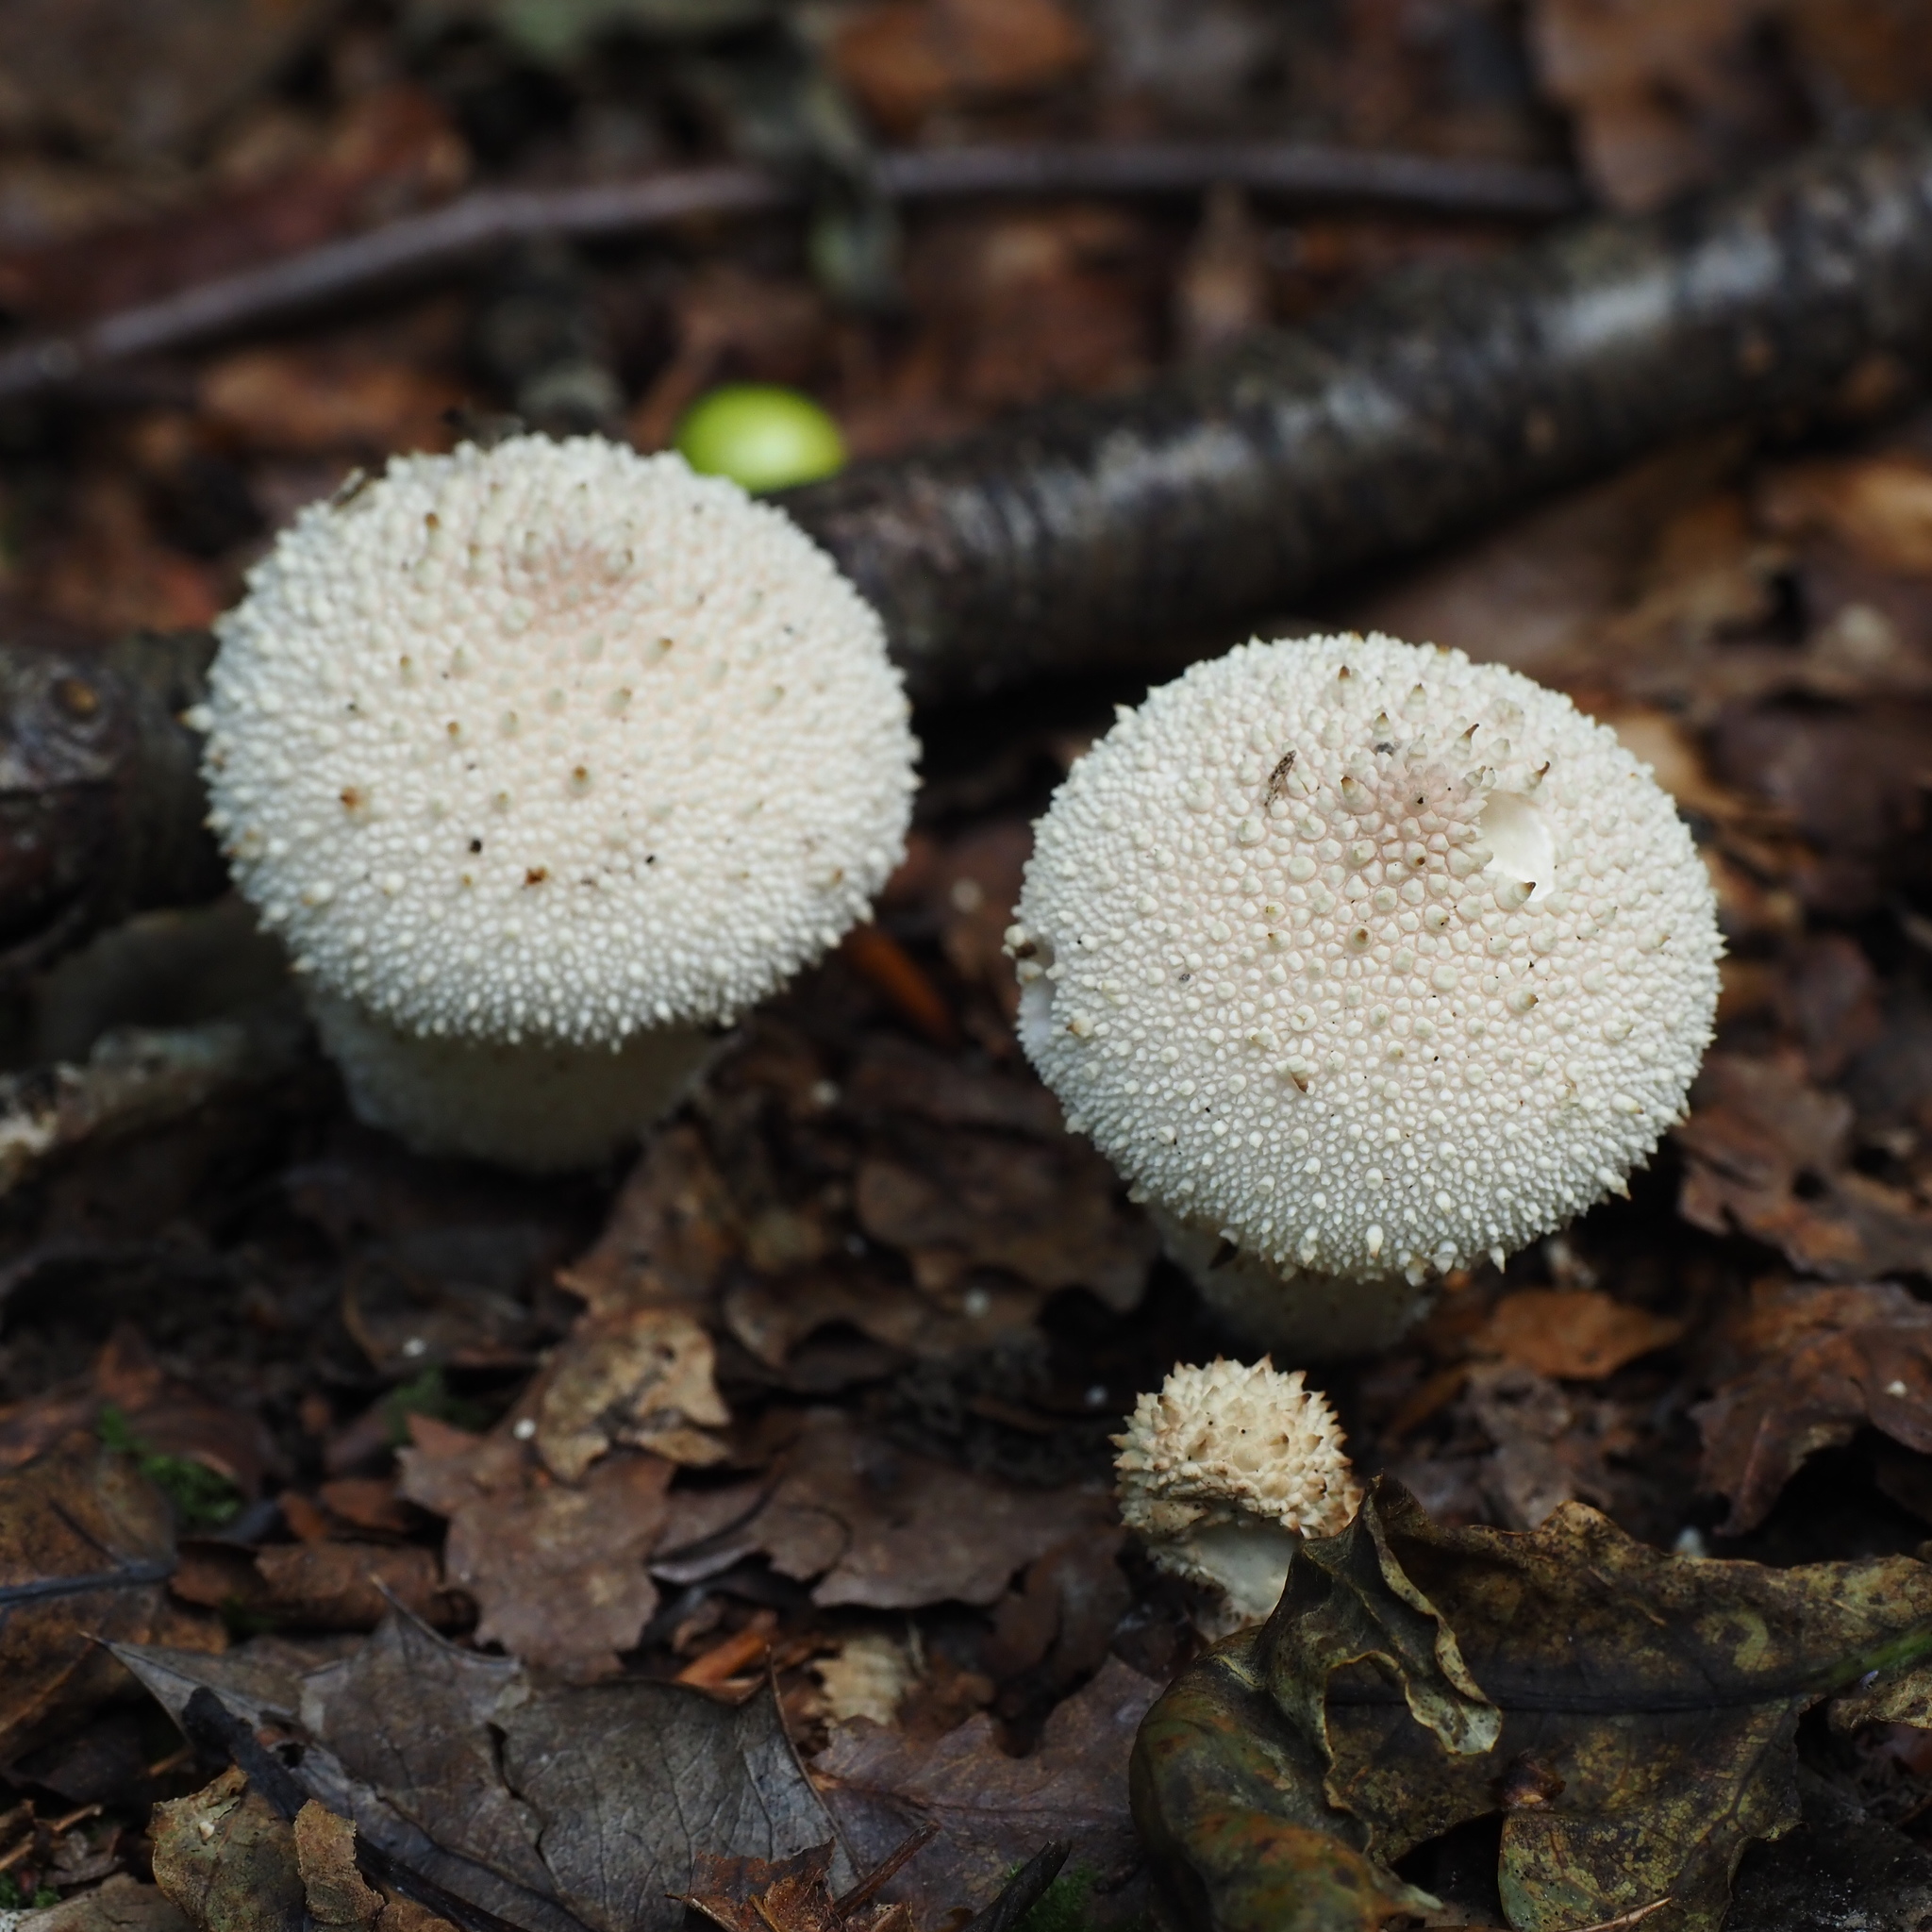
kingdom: Fungi
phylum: Basidiomycota
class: Agaricomycetes
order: Agaricales
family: Lycoperdaceae
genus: Lycoperdon
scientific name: Lycoperdon perlatum
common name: Common puffball
